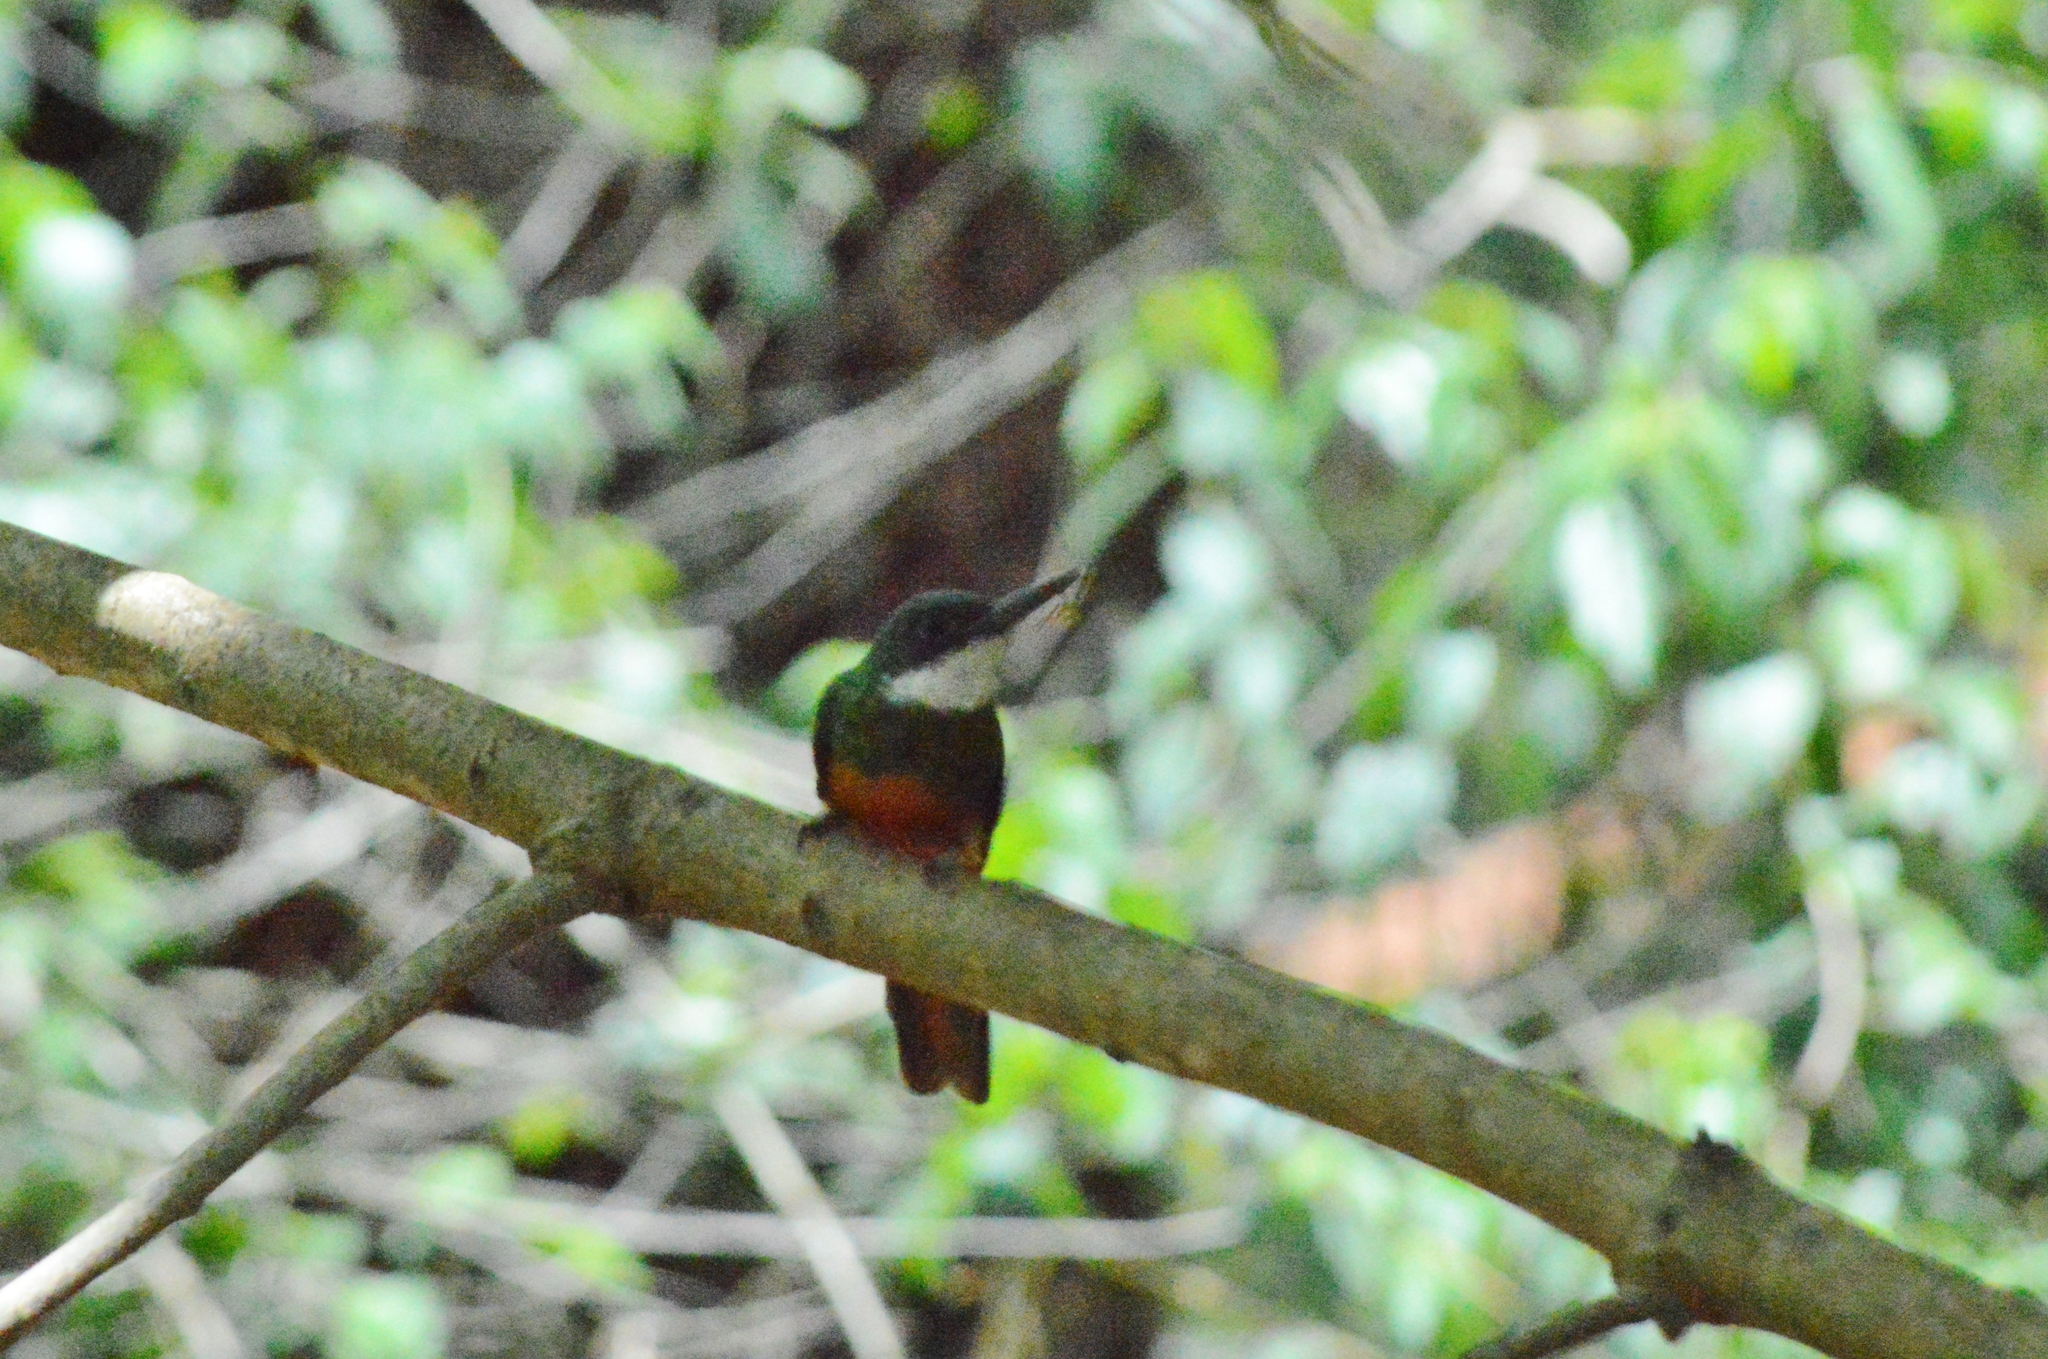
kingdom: Animalia
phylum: Chordata
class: Aves
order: Piciformes
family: Galbulidae
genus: Galbula
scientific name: Galbula ruficauda
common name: Rufous-tailed jacamar
